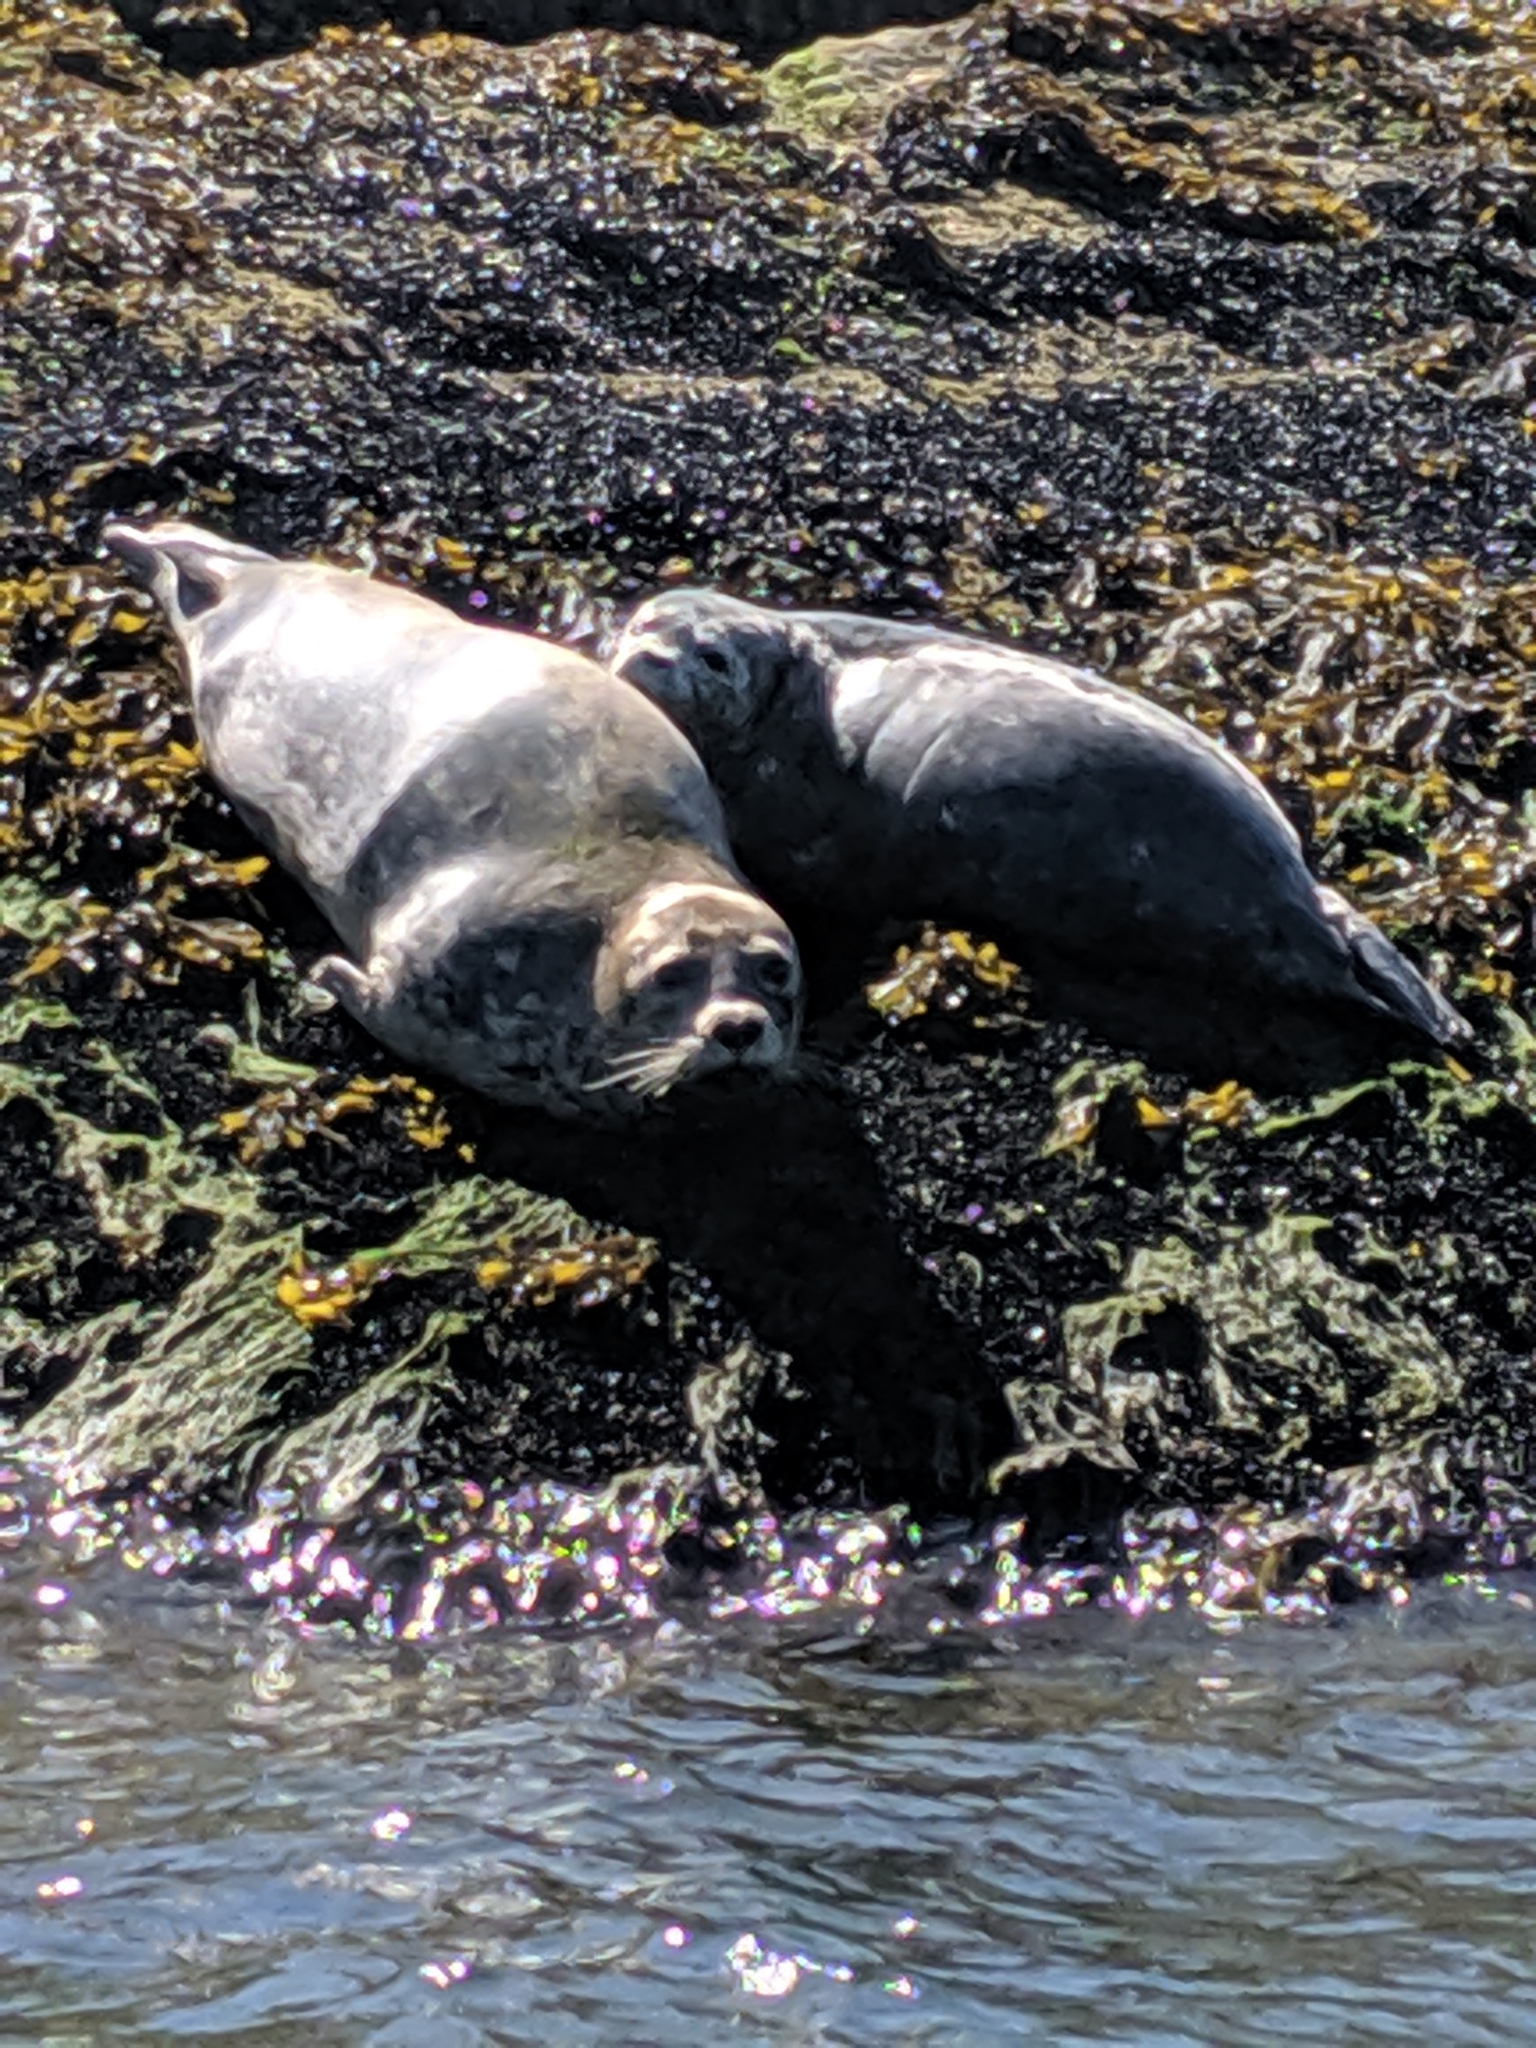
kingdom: Animalia
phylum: Chordata
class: Mammalia
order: Carnivora
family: Phocidae
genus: Phoca
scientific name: Phoca vitulina
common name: Harbor seal
